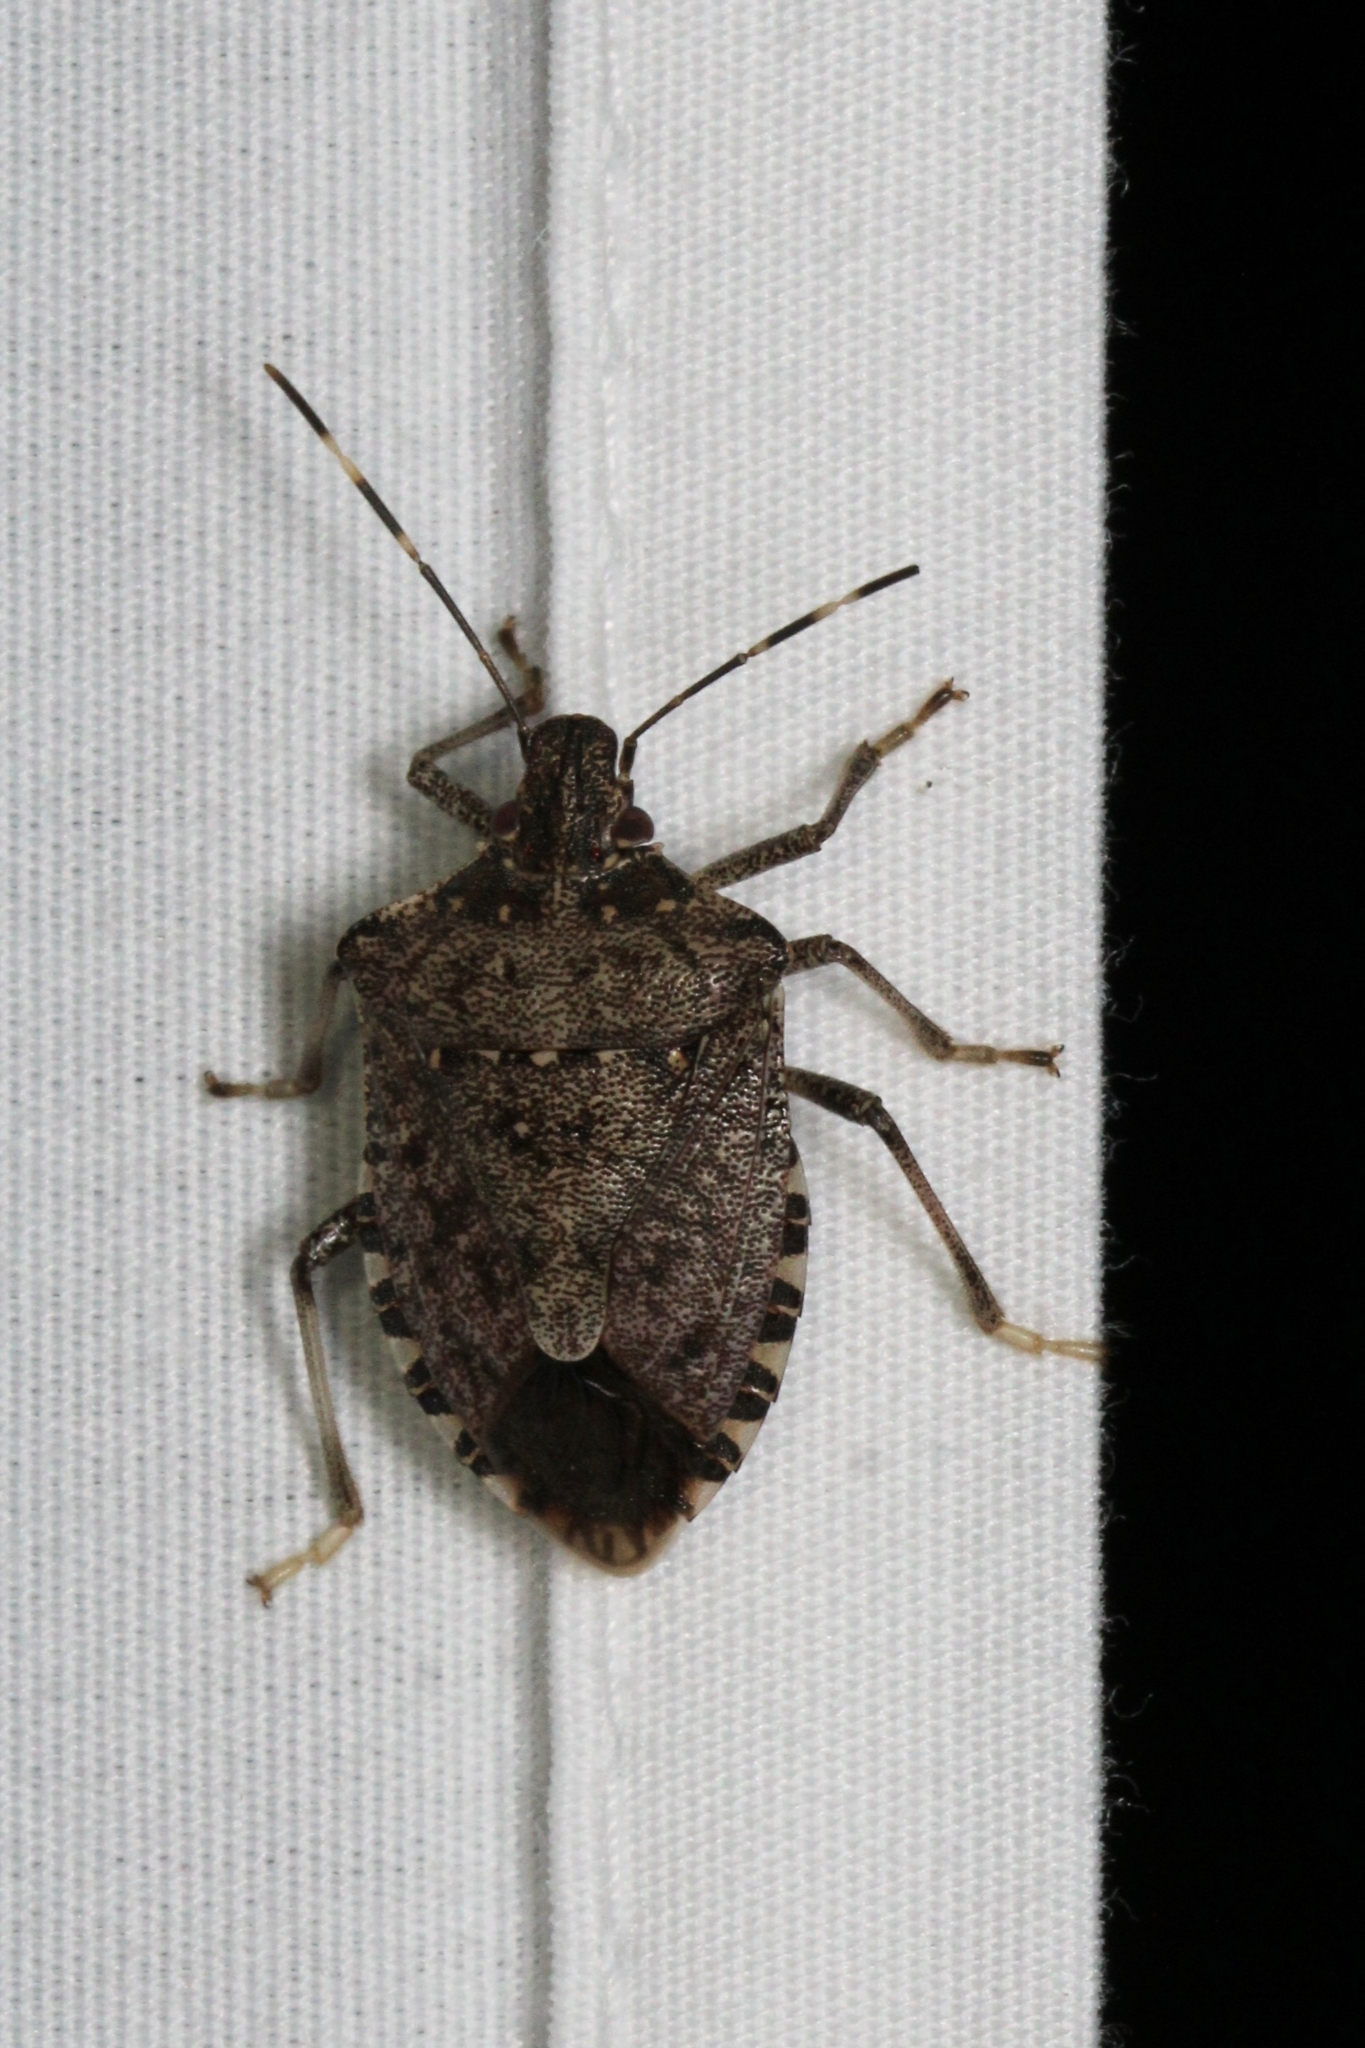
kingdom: Animalia
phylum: Arthropoda
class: Insecta
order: Hemiptera
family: Pentatomidae
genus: Halyomorpha
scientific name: Halyomorpha halys
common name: Brown marmorated stink bug
